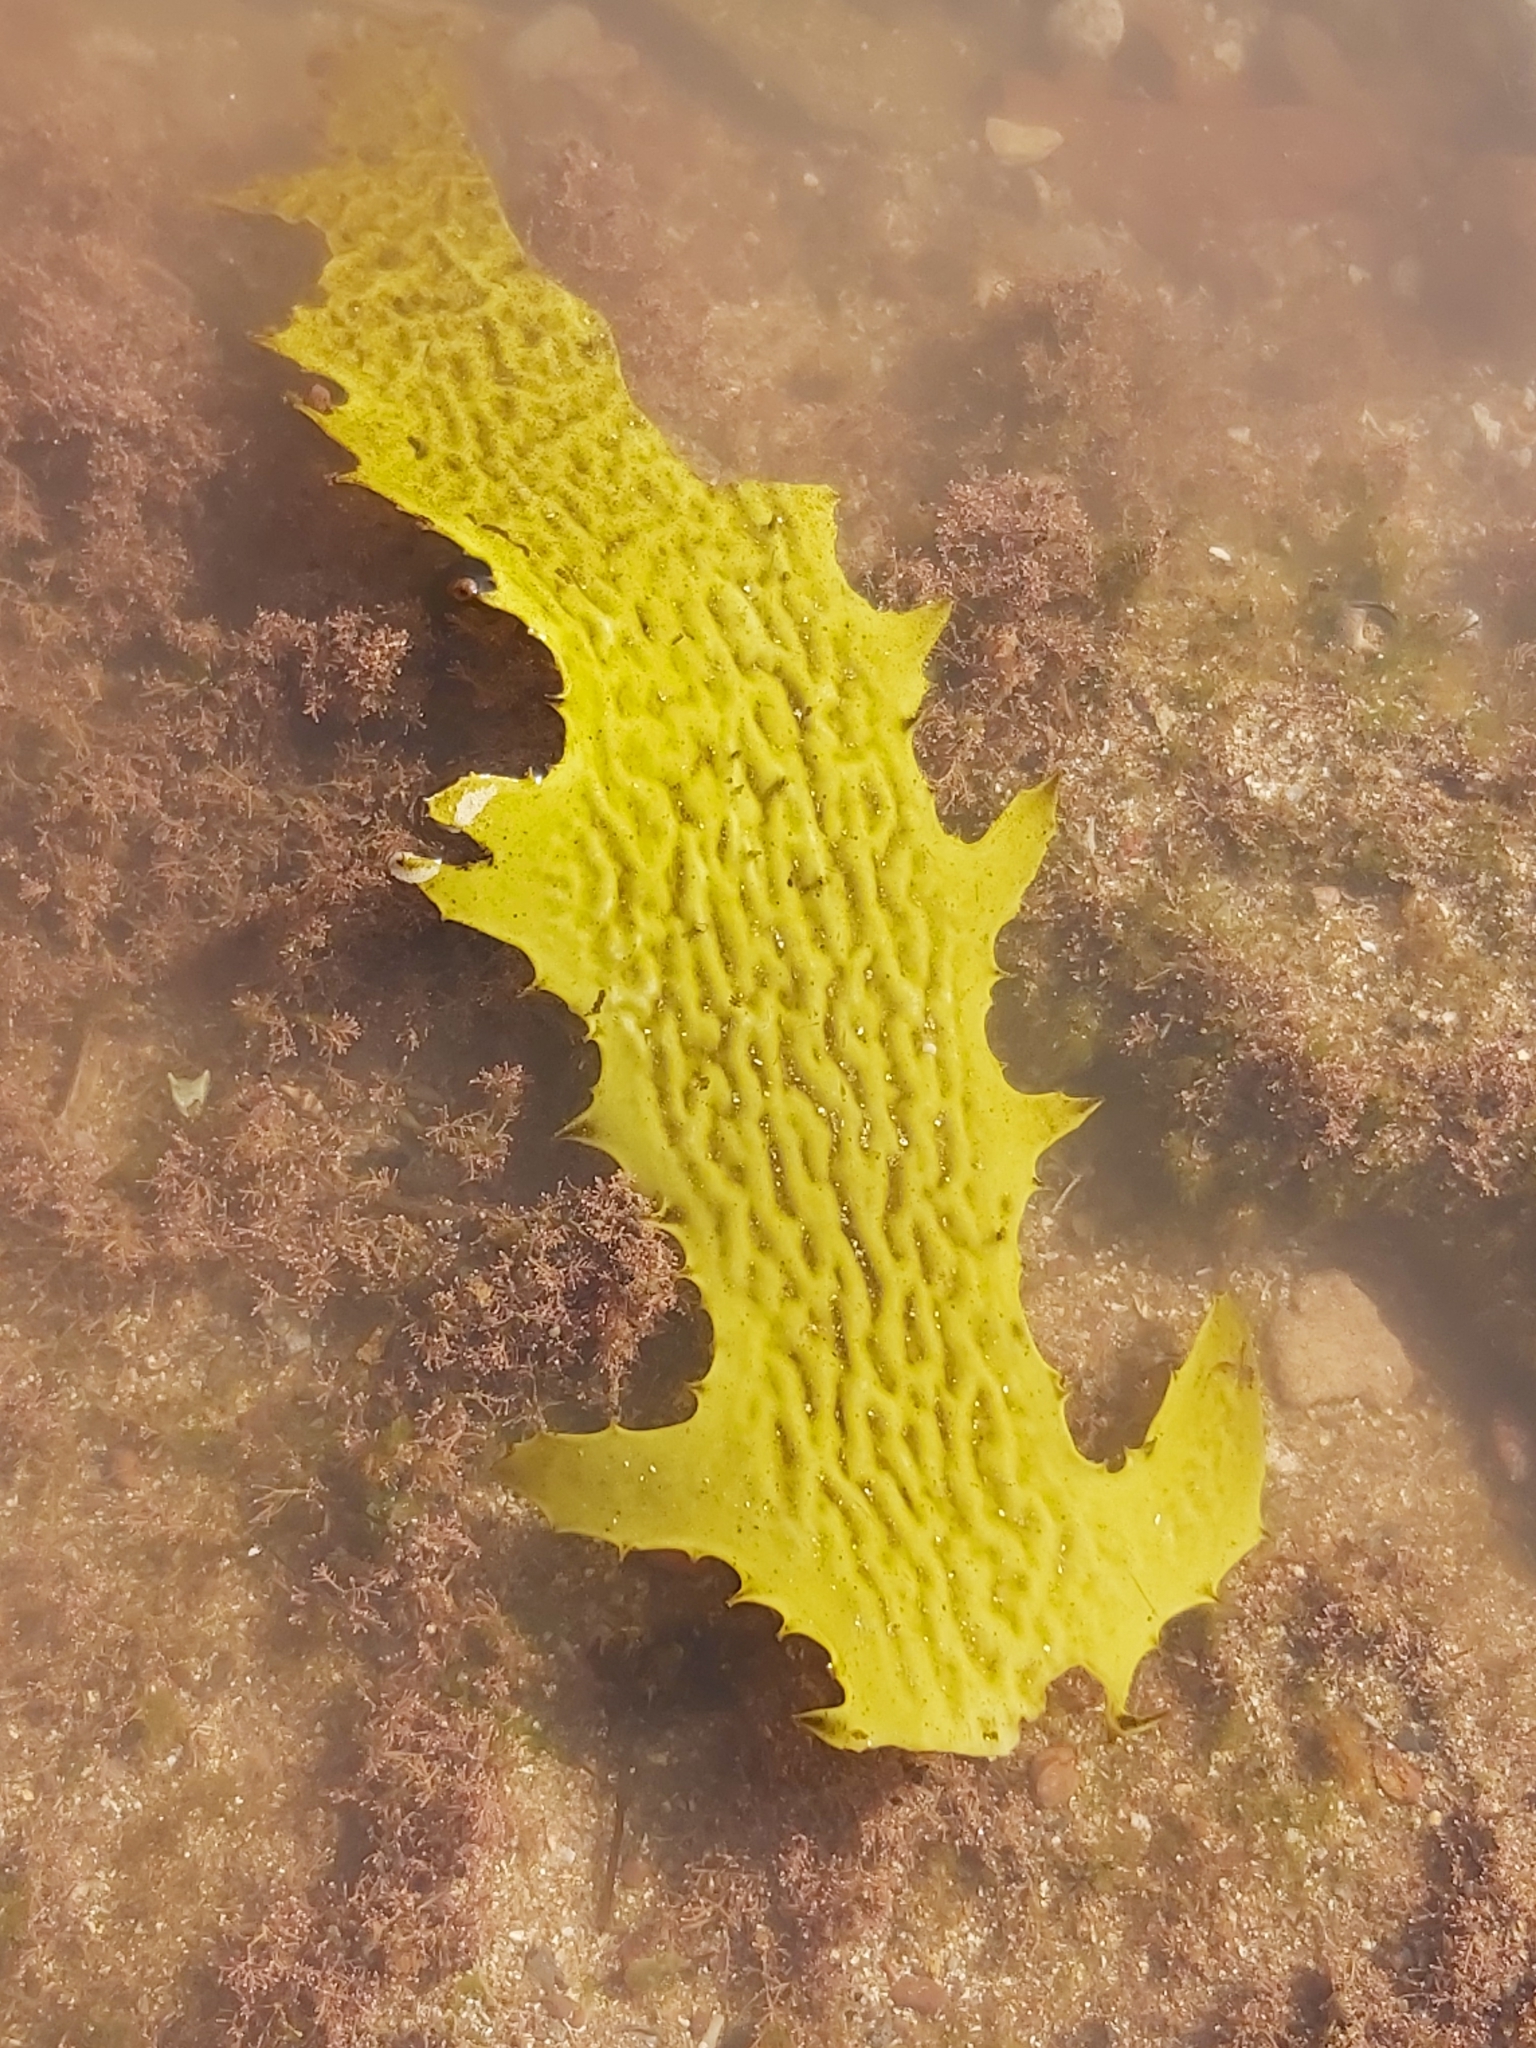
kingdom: Chromista
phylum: Ochrophyta
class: Phaeophyceae
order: Laminariales
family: Lessoniaceae
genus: Ecklonia
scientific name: Ecklonia radiata
